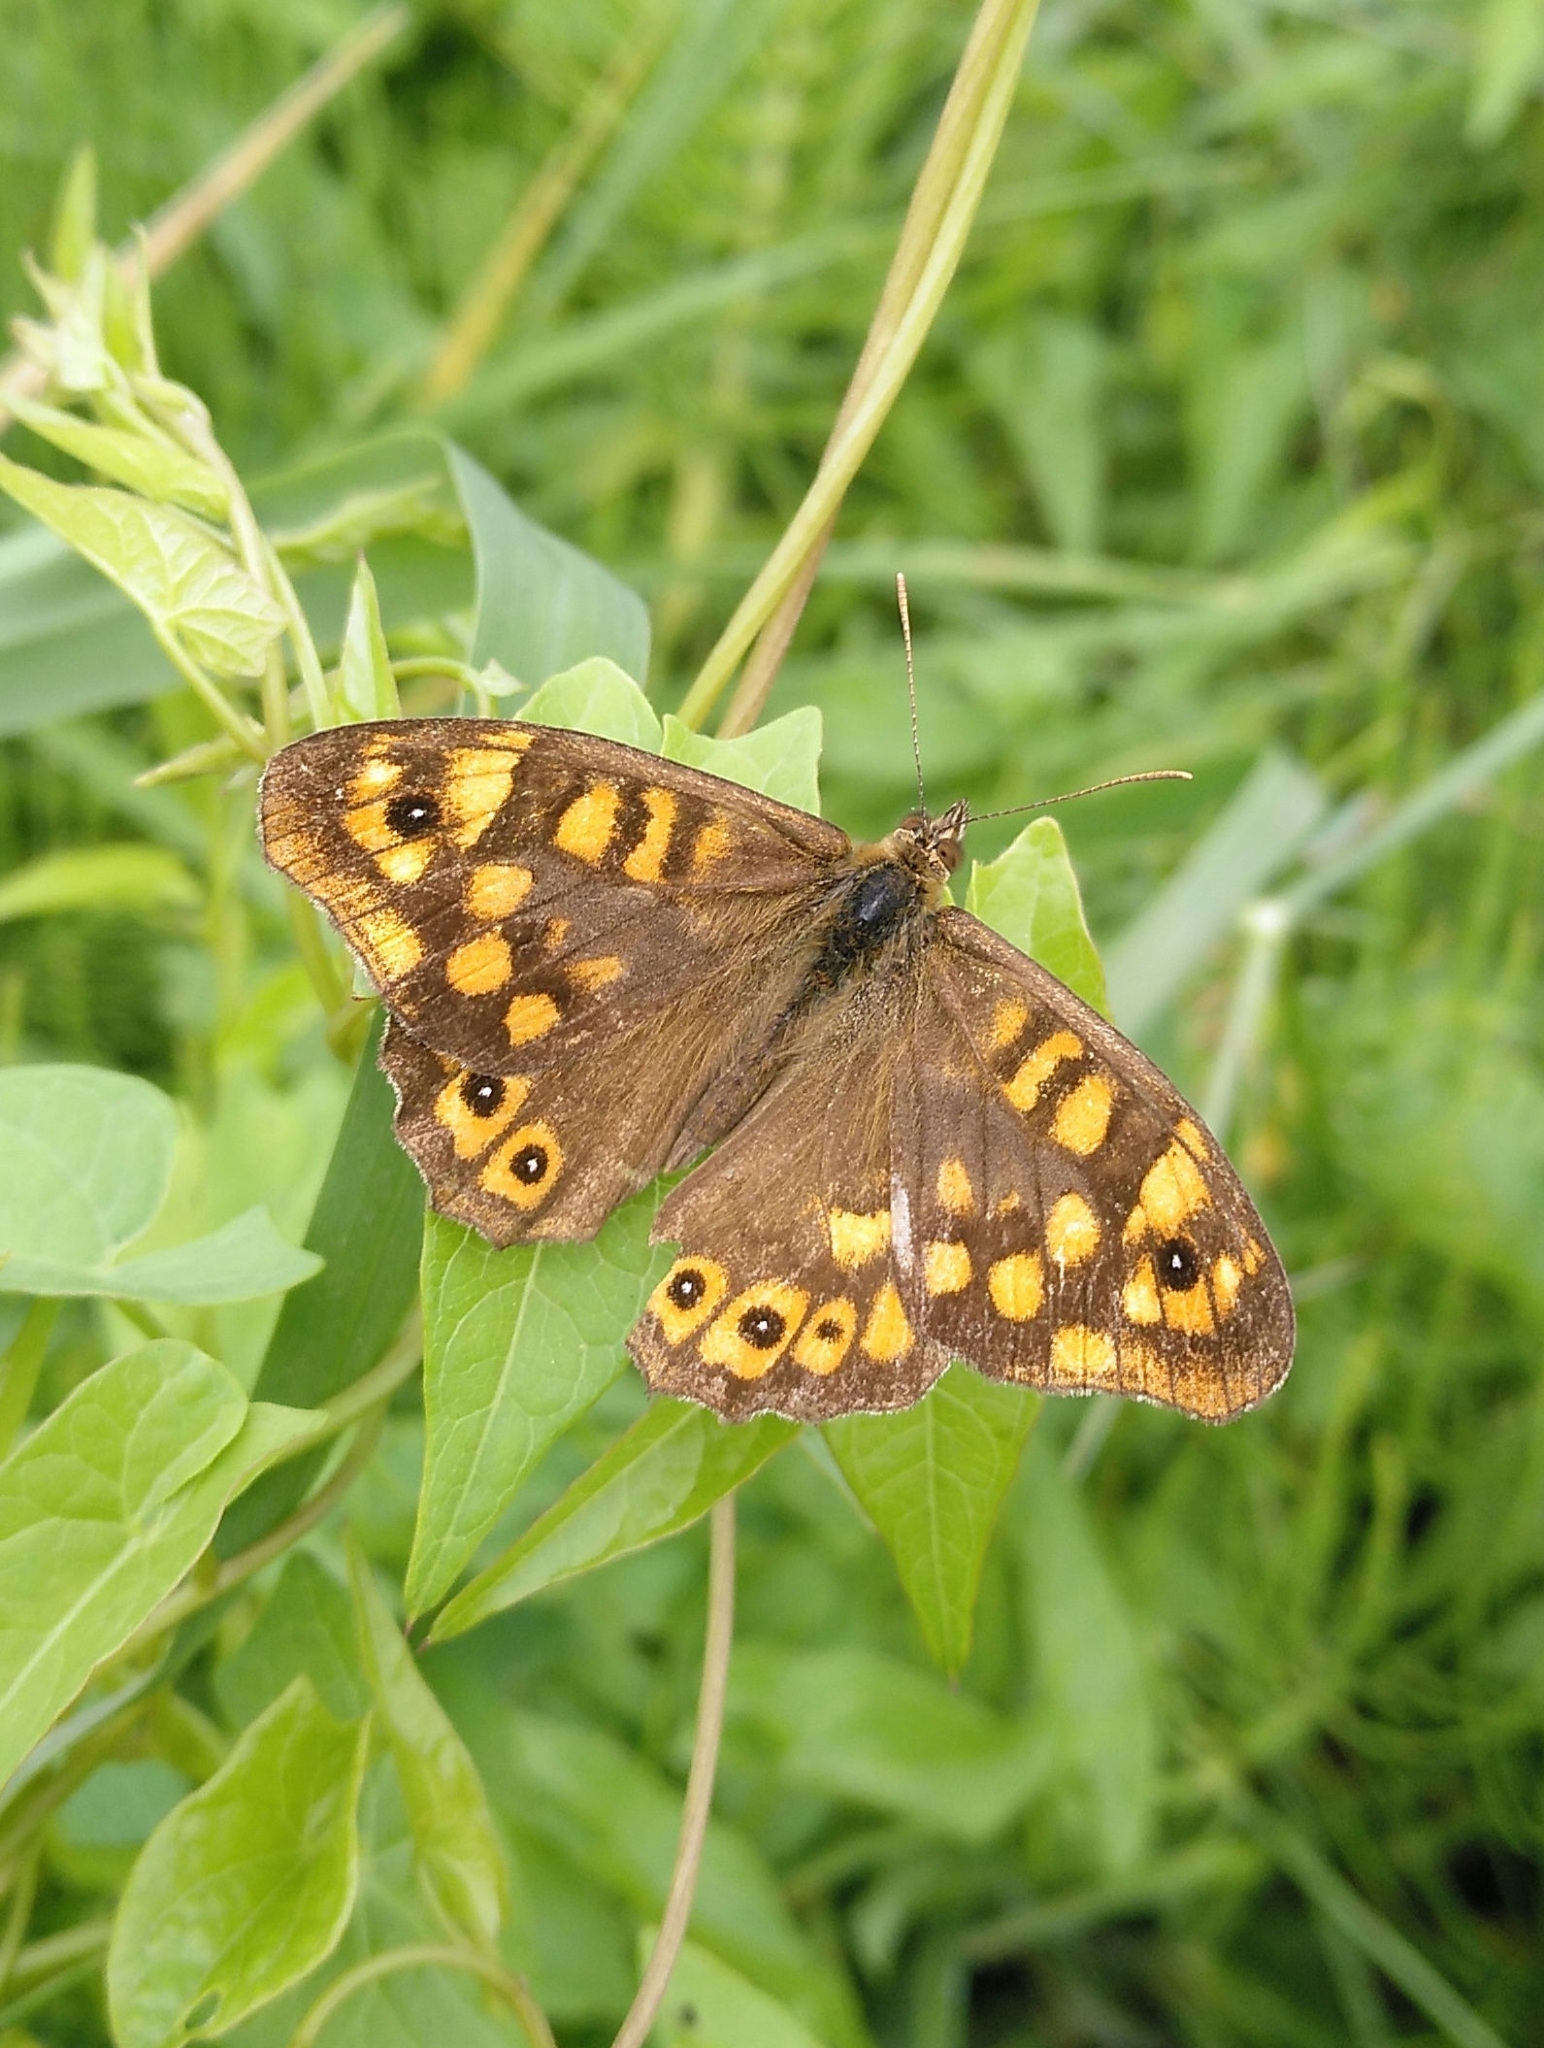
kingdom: Animalia
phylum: Arthropoda
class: Insecta
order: Lepidoptera
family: Nymphalidae
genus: Pararge
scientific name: Pararge aegeria
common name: Speckled wood
